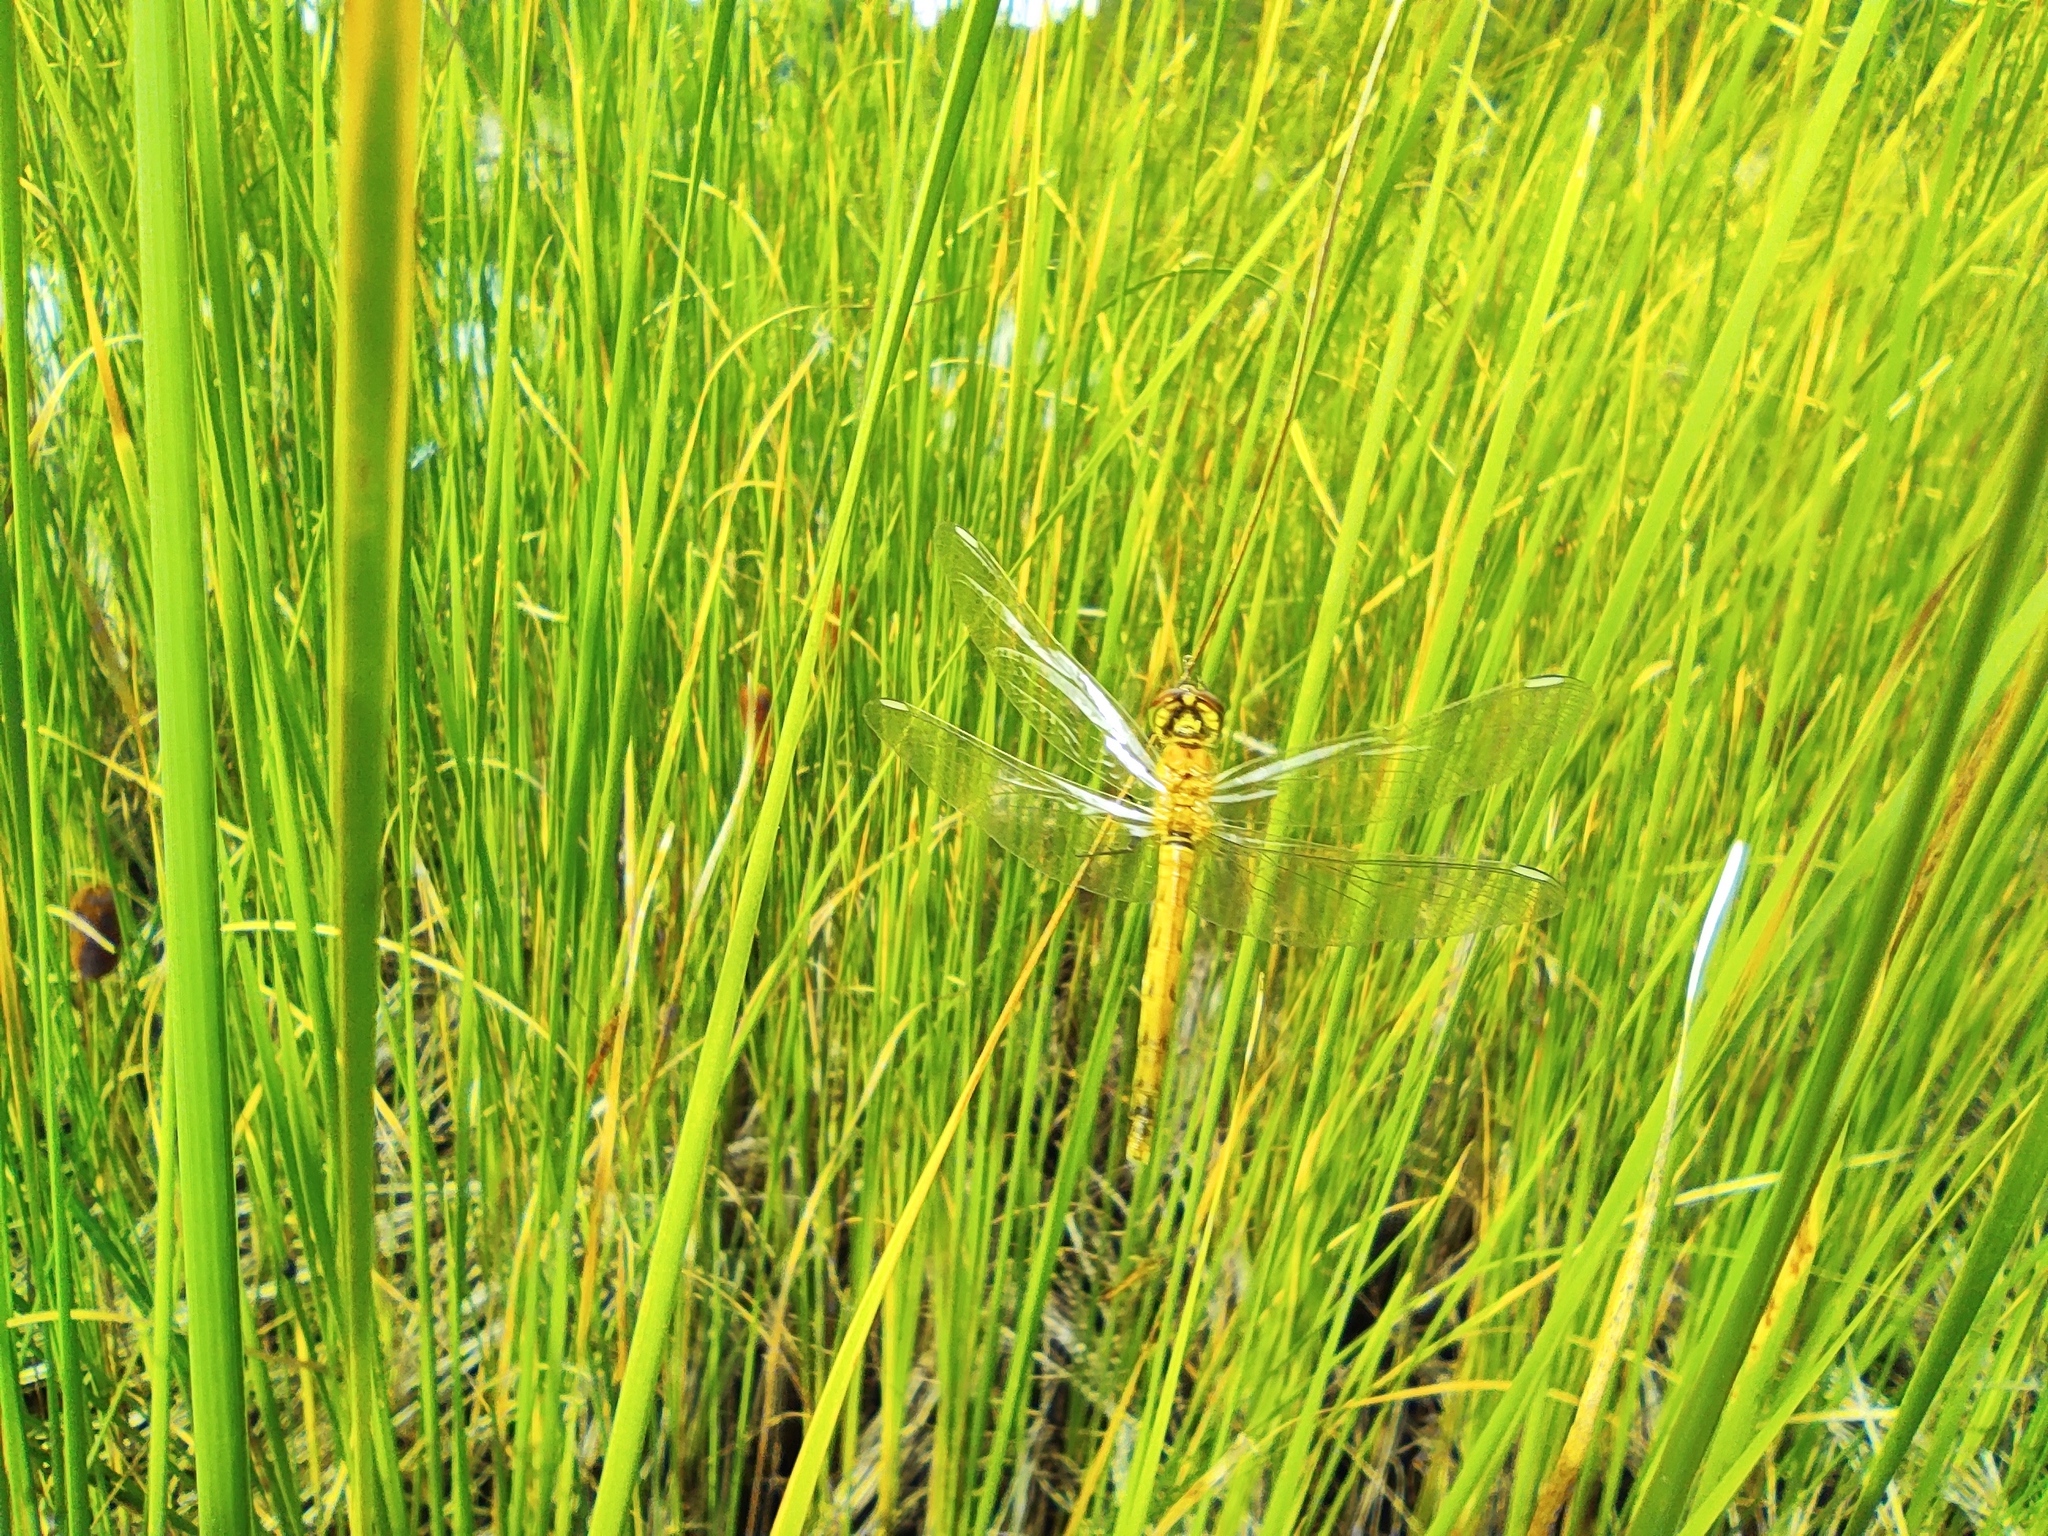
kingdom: Animalia
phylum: Arthropoda
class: Insecta
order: Odonata
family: Libellulidae
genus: Sympetrum
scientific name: Sympetrum depressiusculum
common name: Spotted darter
